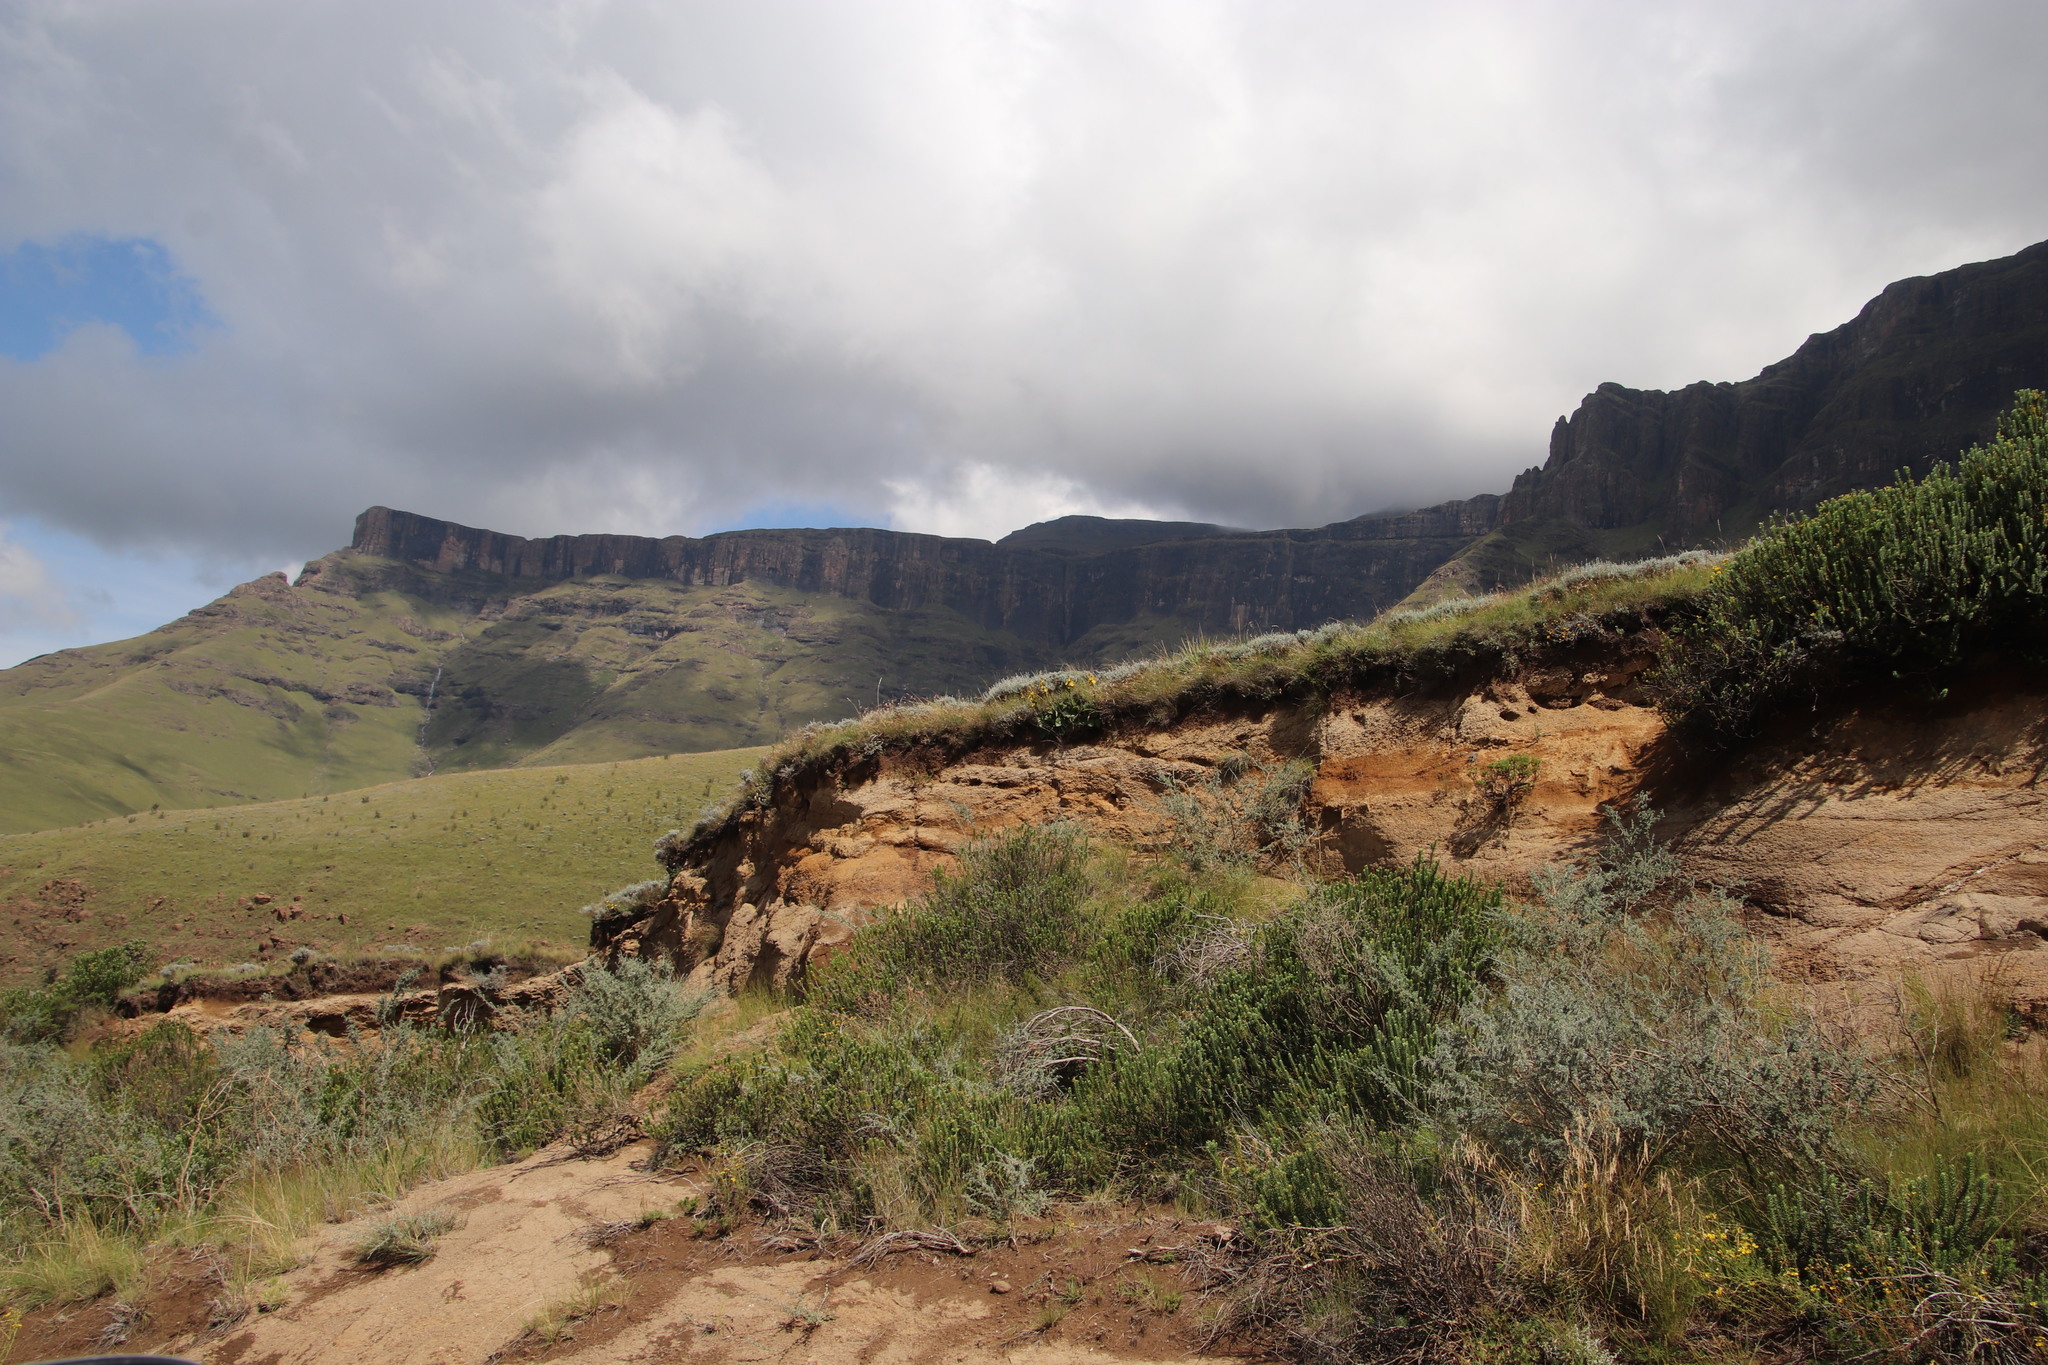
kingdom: Plantae
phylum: Tracheophyta
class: Magnoliopsida
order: Asterales
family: Asteraceae
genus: Berkheya
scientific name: Berkheya rhapontica
